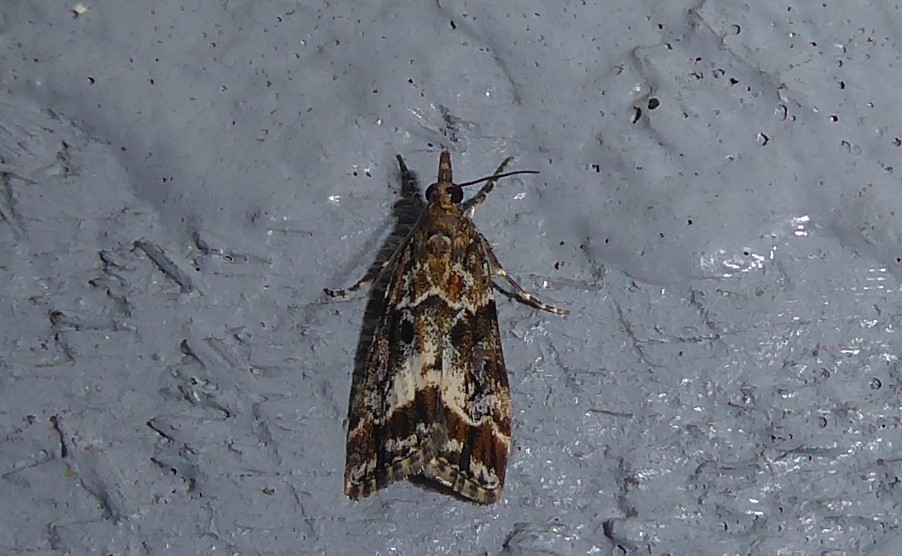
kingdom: Animalia
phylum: Arthropoda
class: Insecta
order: Lepidoptera
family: Crambidae
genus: Eudonia
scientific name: Eudonia legnota
